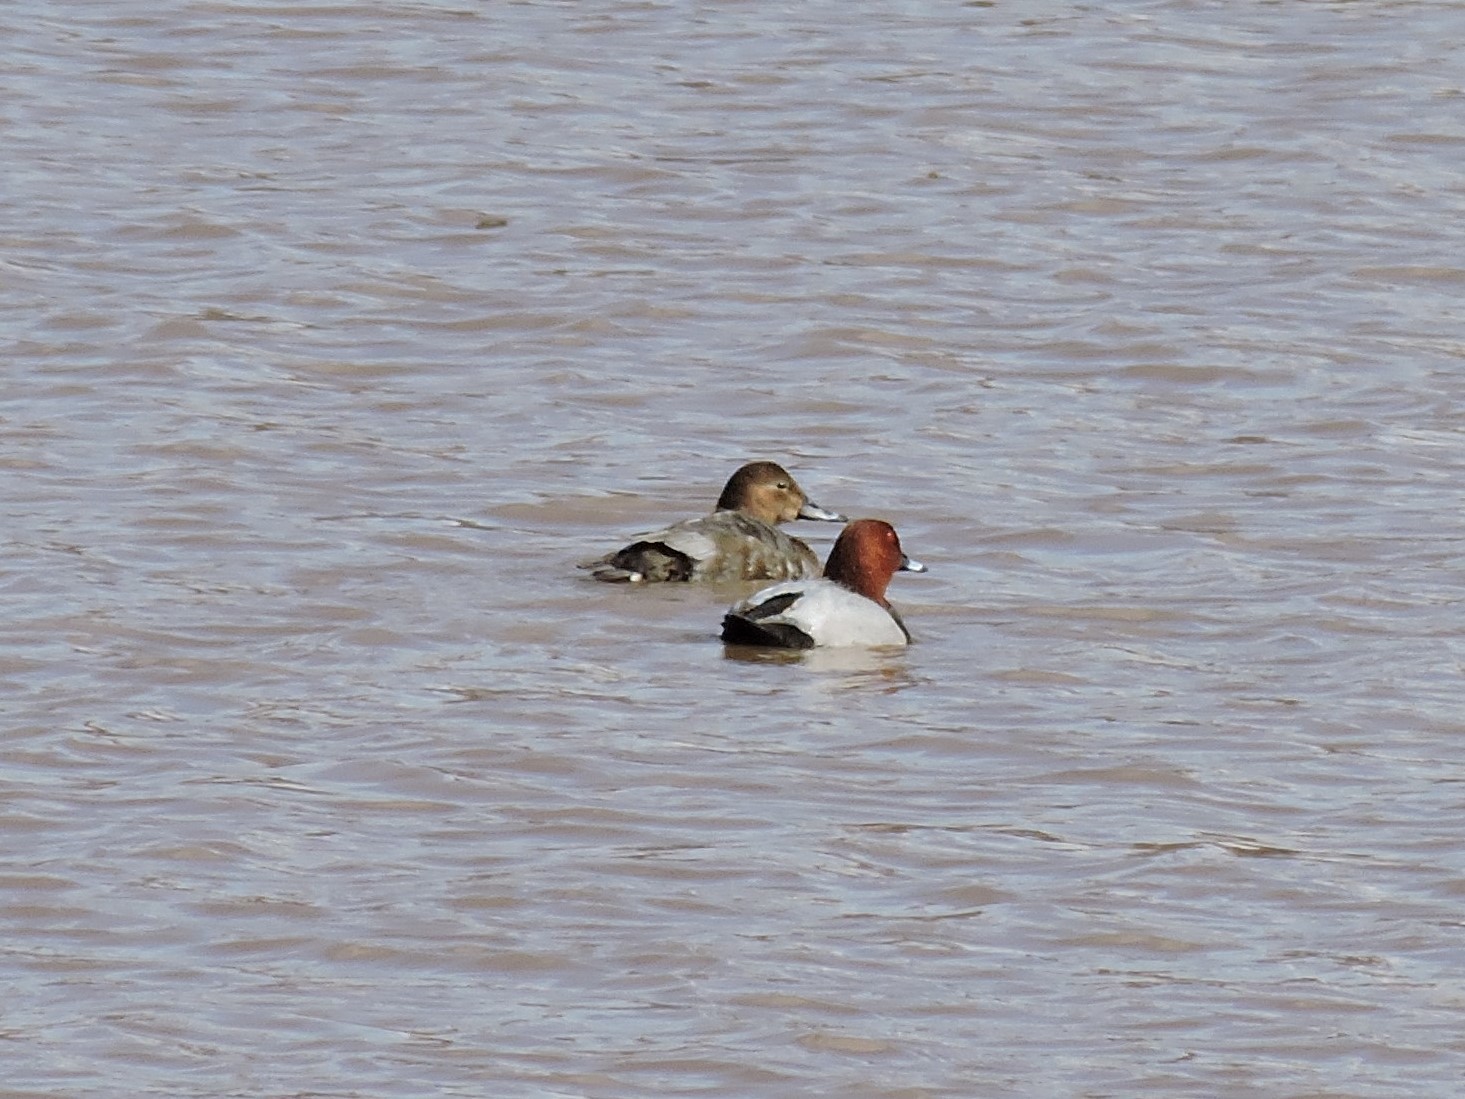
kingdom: Animalia
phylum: Chordata
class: Aves
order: Anseriformes
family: Anatidae
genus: Aythya
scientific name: Aythya ferina
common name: Common pochard
